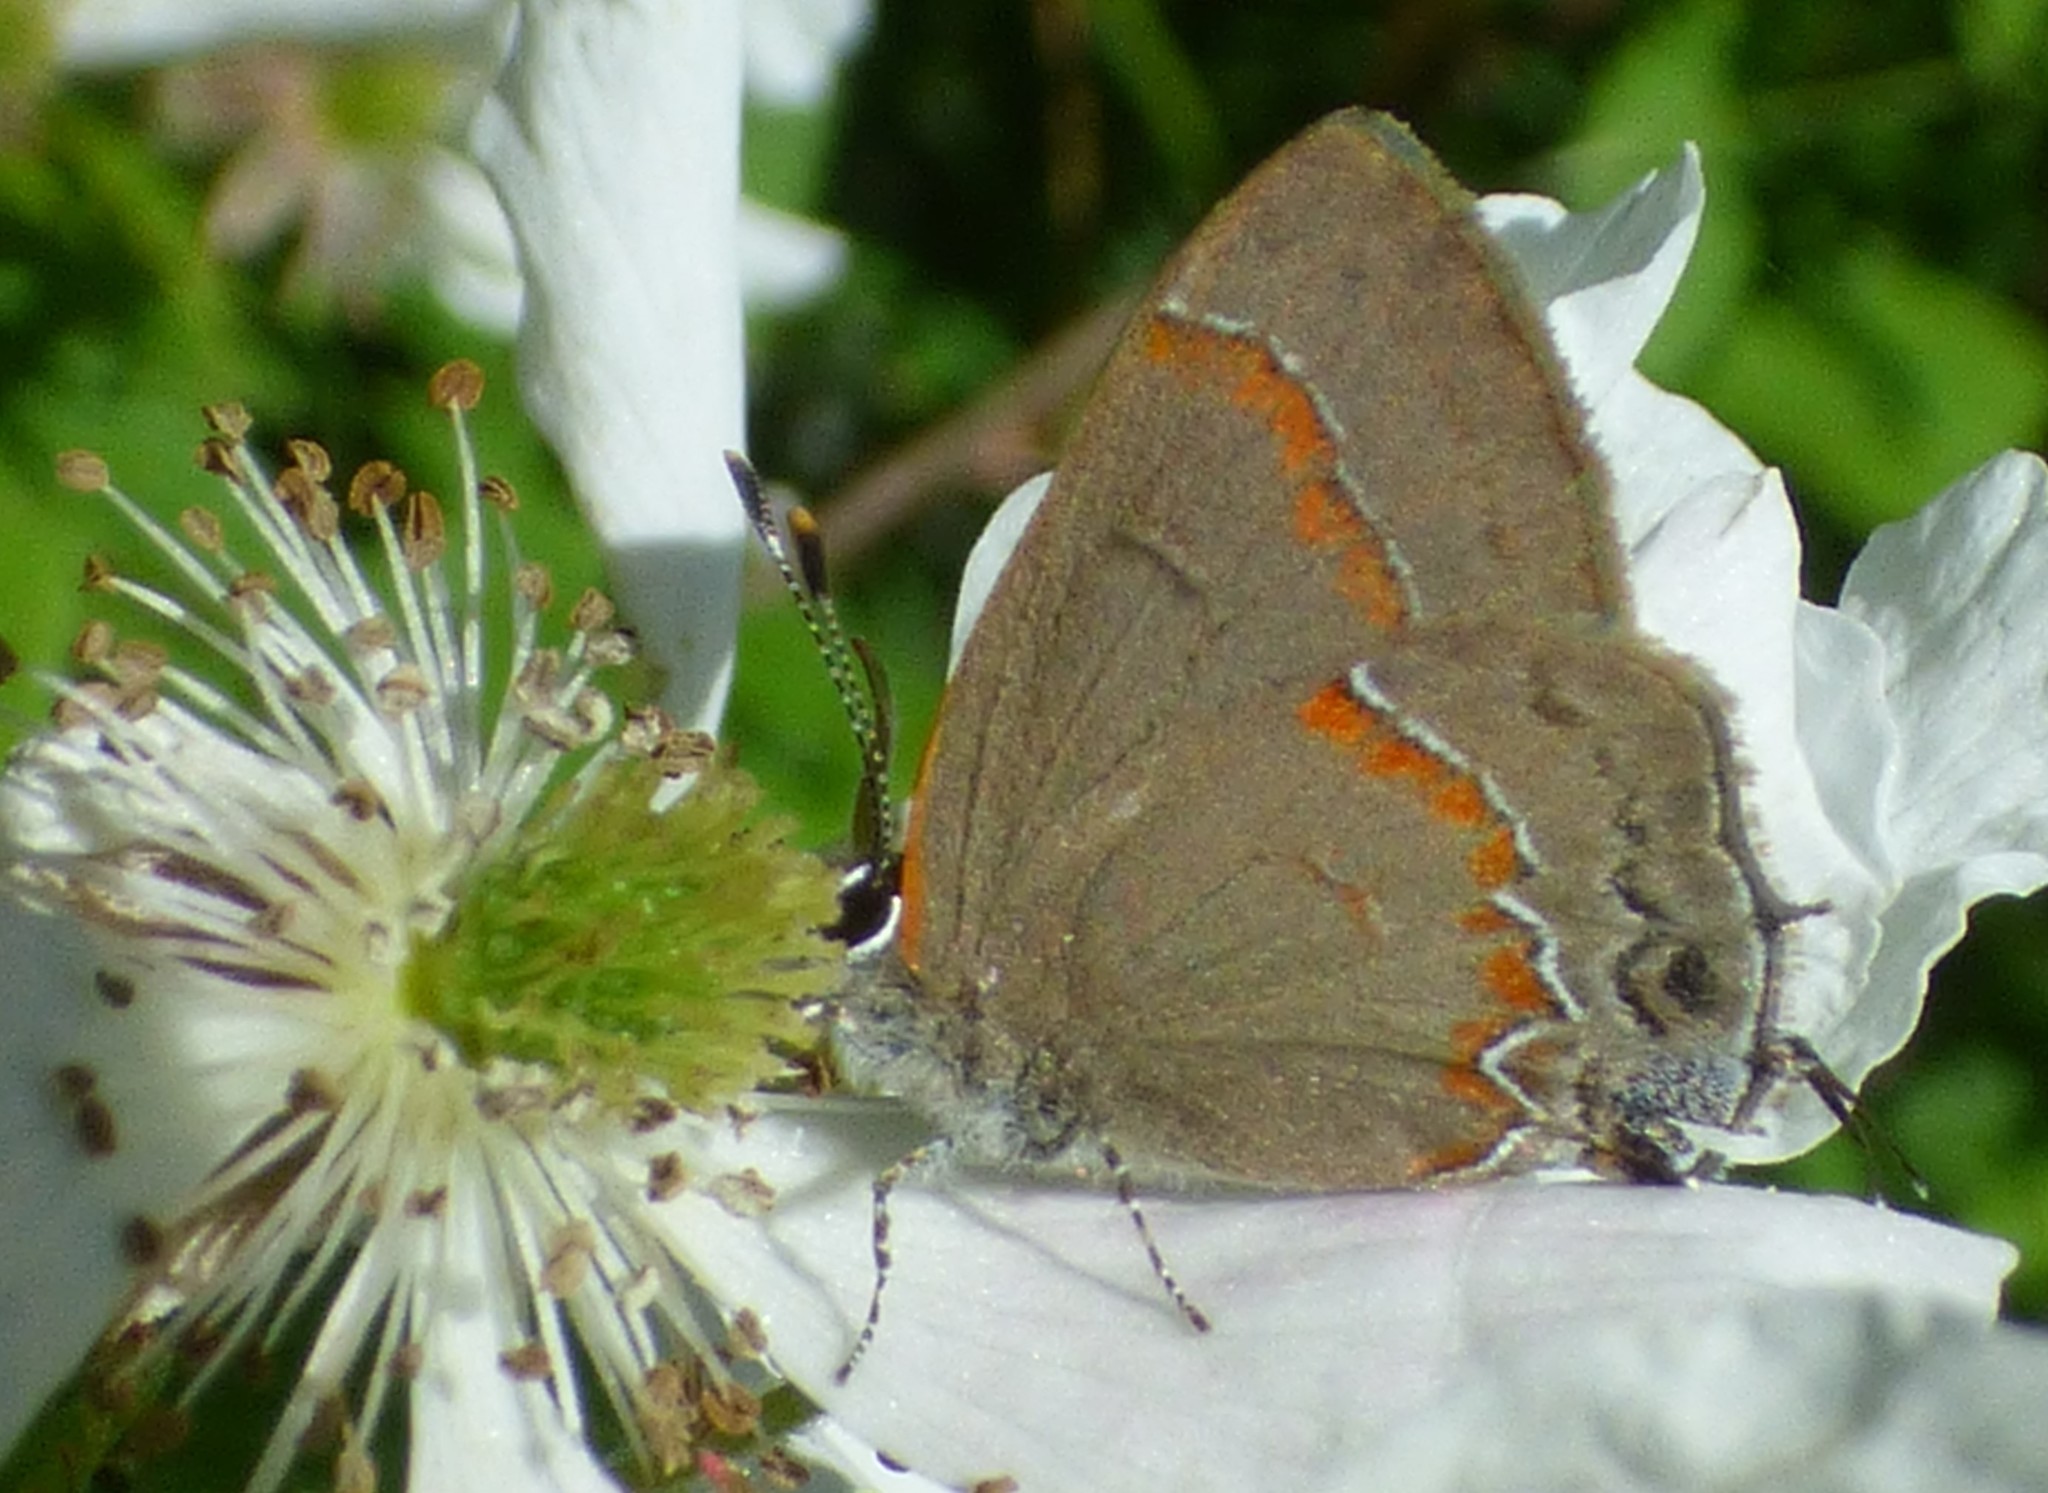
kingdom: Animalia
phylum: Arthropoda
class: Insecta
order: Lepidoptera
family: Lycaenidae
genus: Calycopis
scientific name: Calycopis cecrops
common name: Red-banded hairstreak
